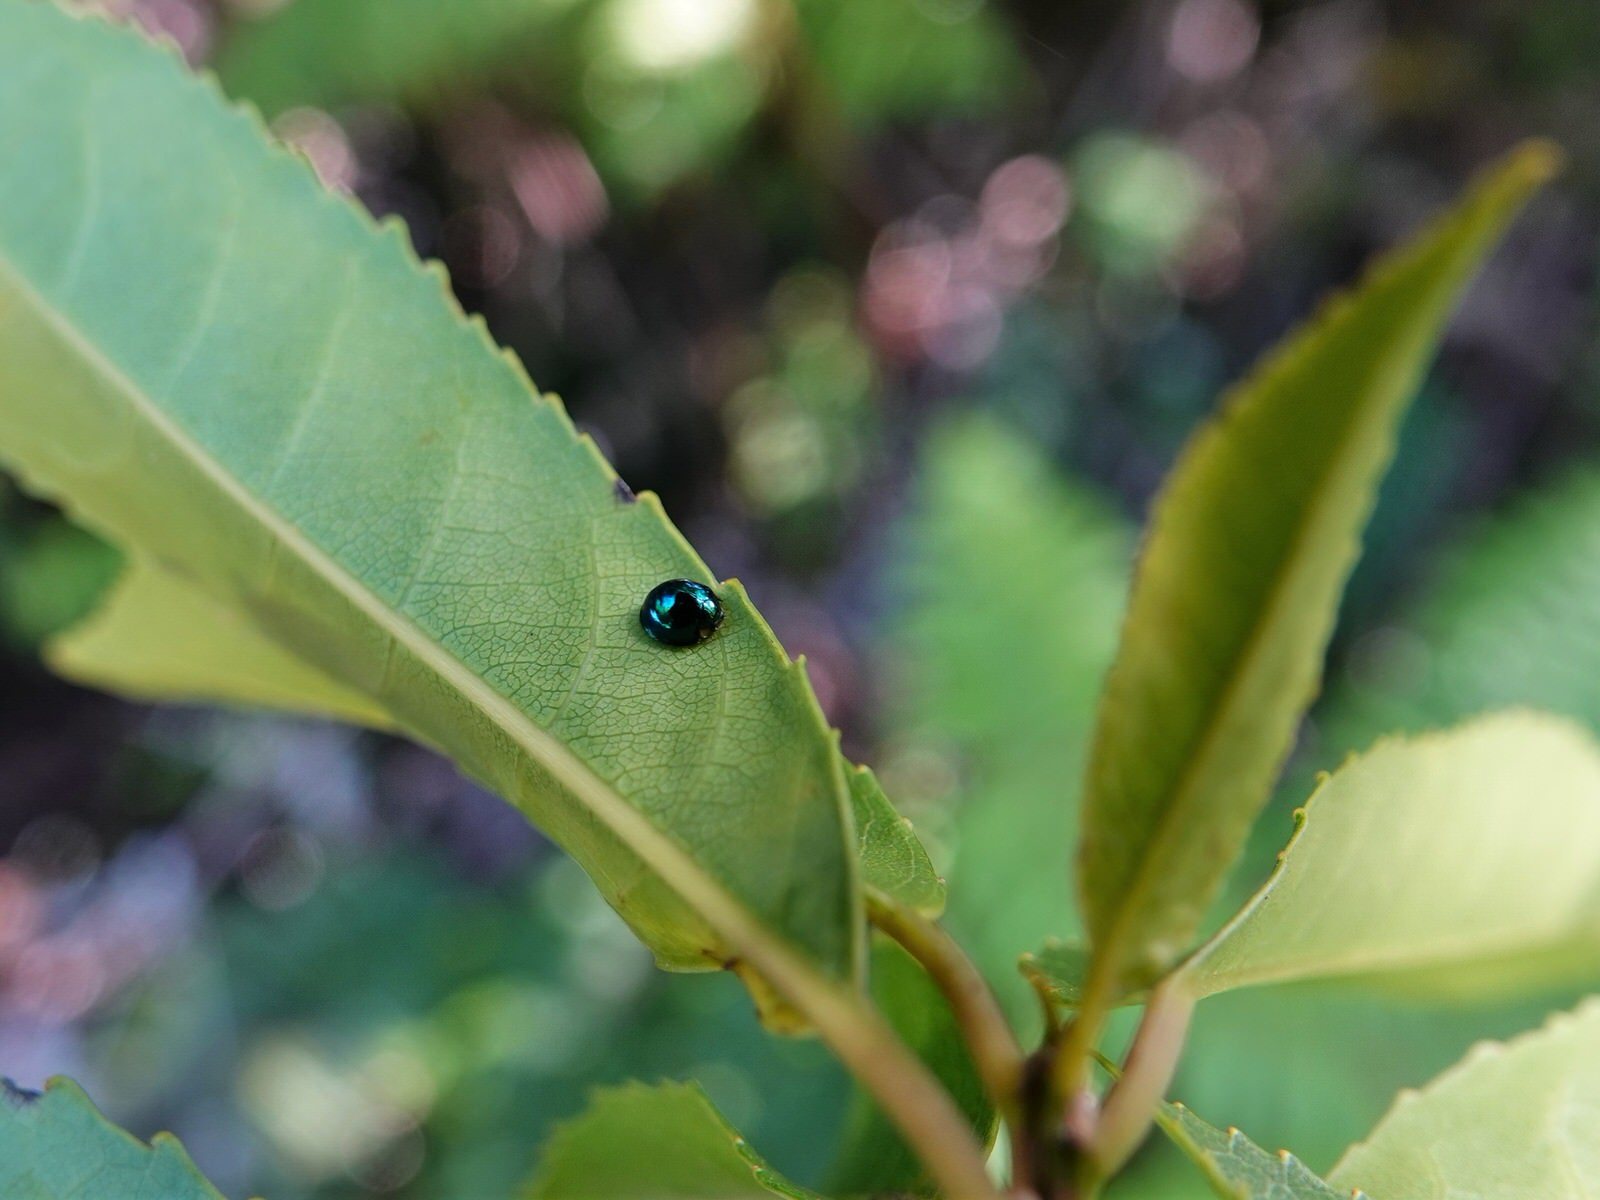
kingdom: Animalia
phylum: Arthropoda
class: Insecta
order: Coleoptera
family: Coccinellidae
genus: Halmus
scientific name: Halmus chalybeus
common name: Steel blue ladybird beetle
